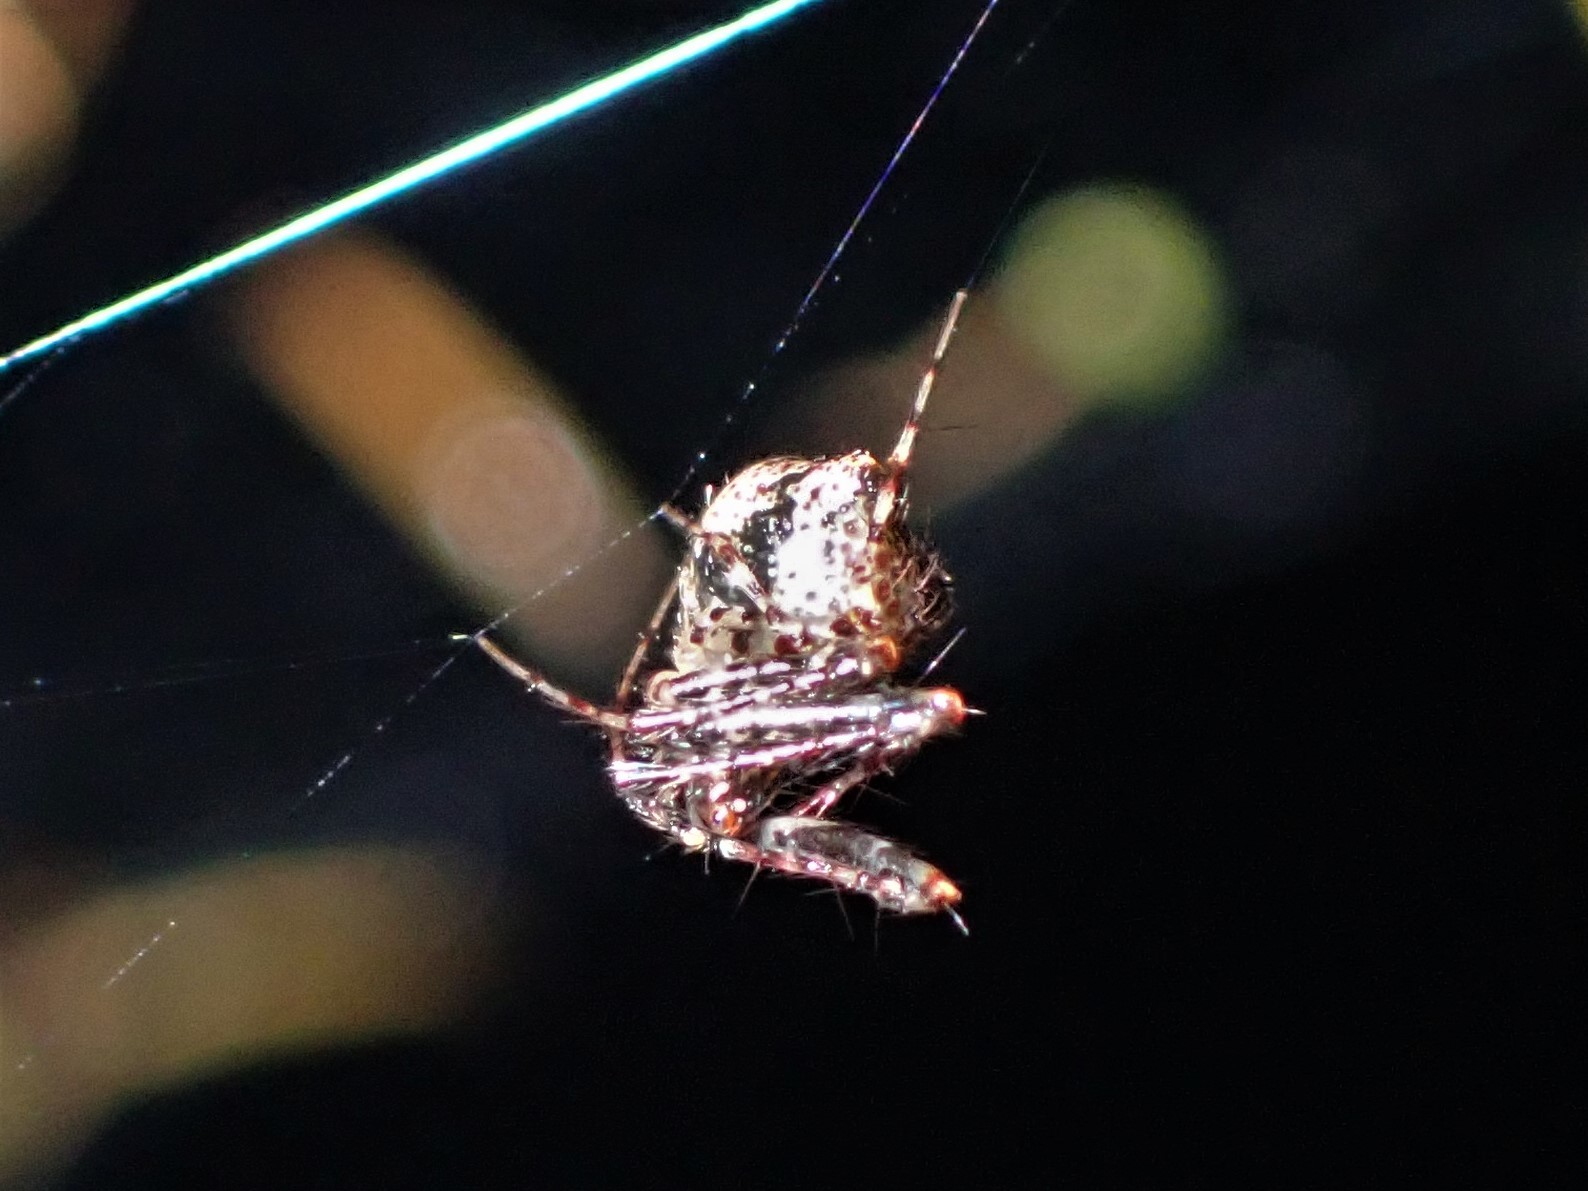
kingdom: Animalia
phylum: Arthropoda
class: Arachnida
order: Araneae
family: Mimetidae
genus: Australomimetus
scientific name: Australomimetus
